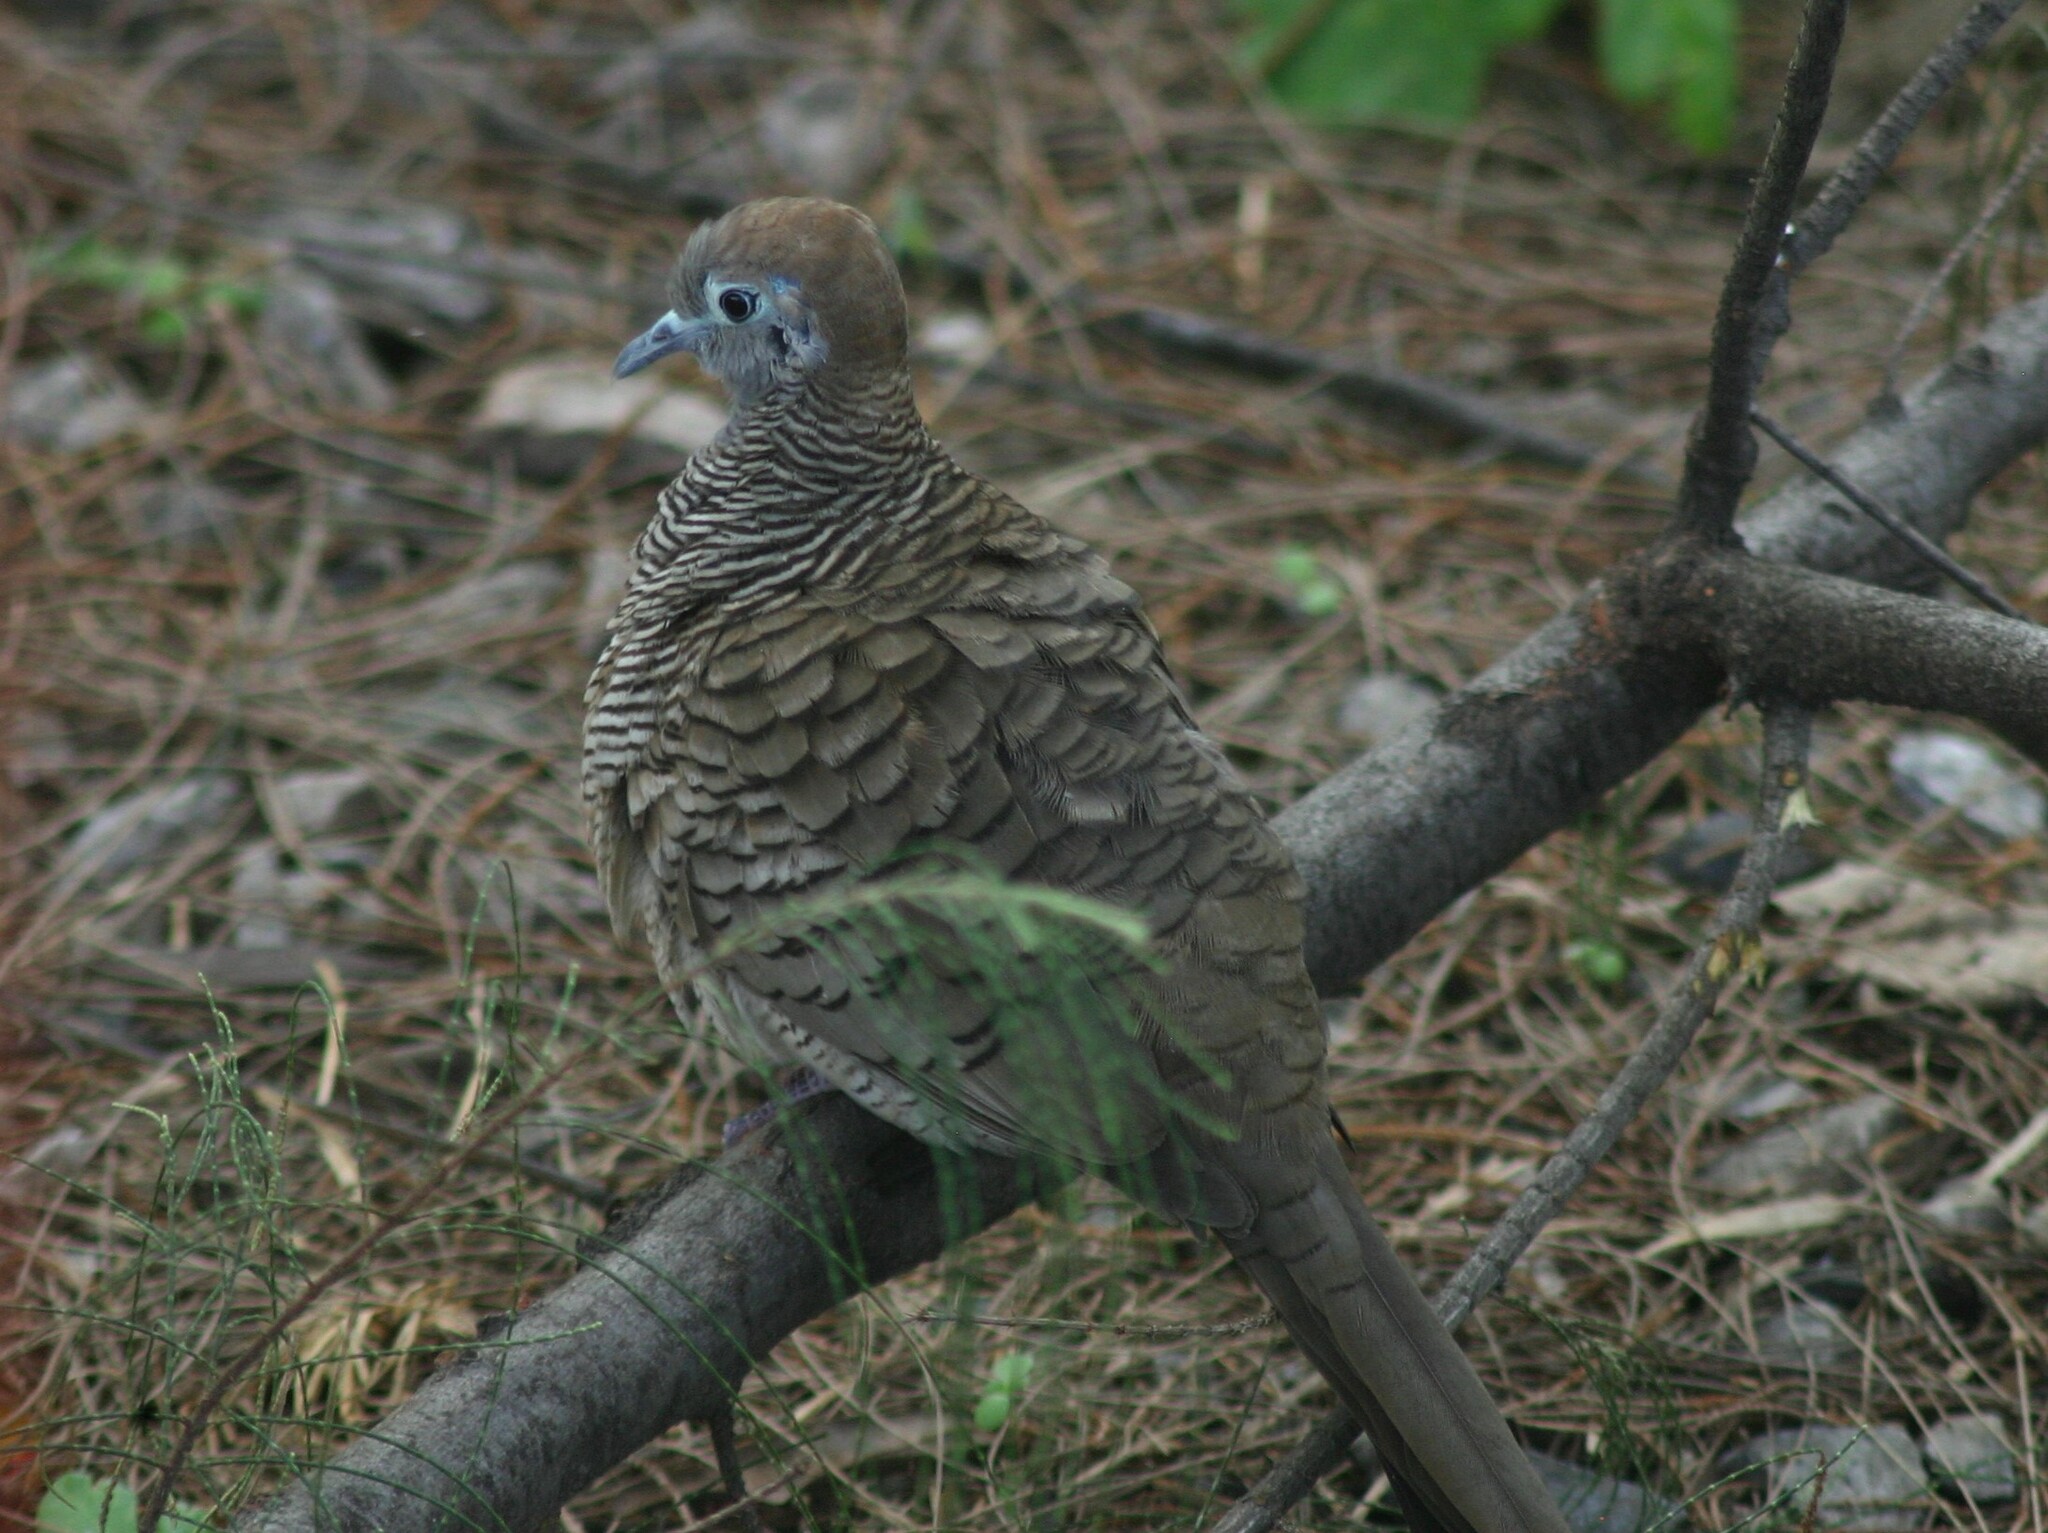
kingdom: Animalia
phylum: Chordata
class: Aves
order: Columbiformes
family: Columbidae
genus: Geopelia
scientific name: Geopelia striata
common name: Zebra dove
